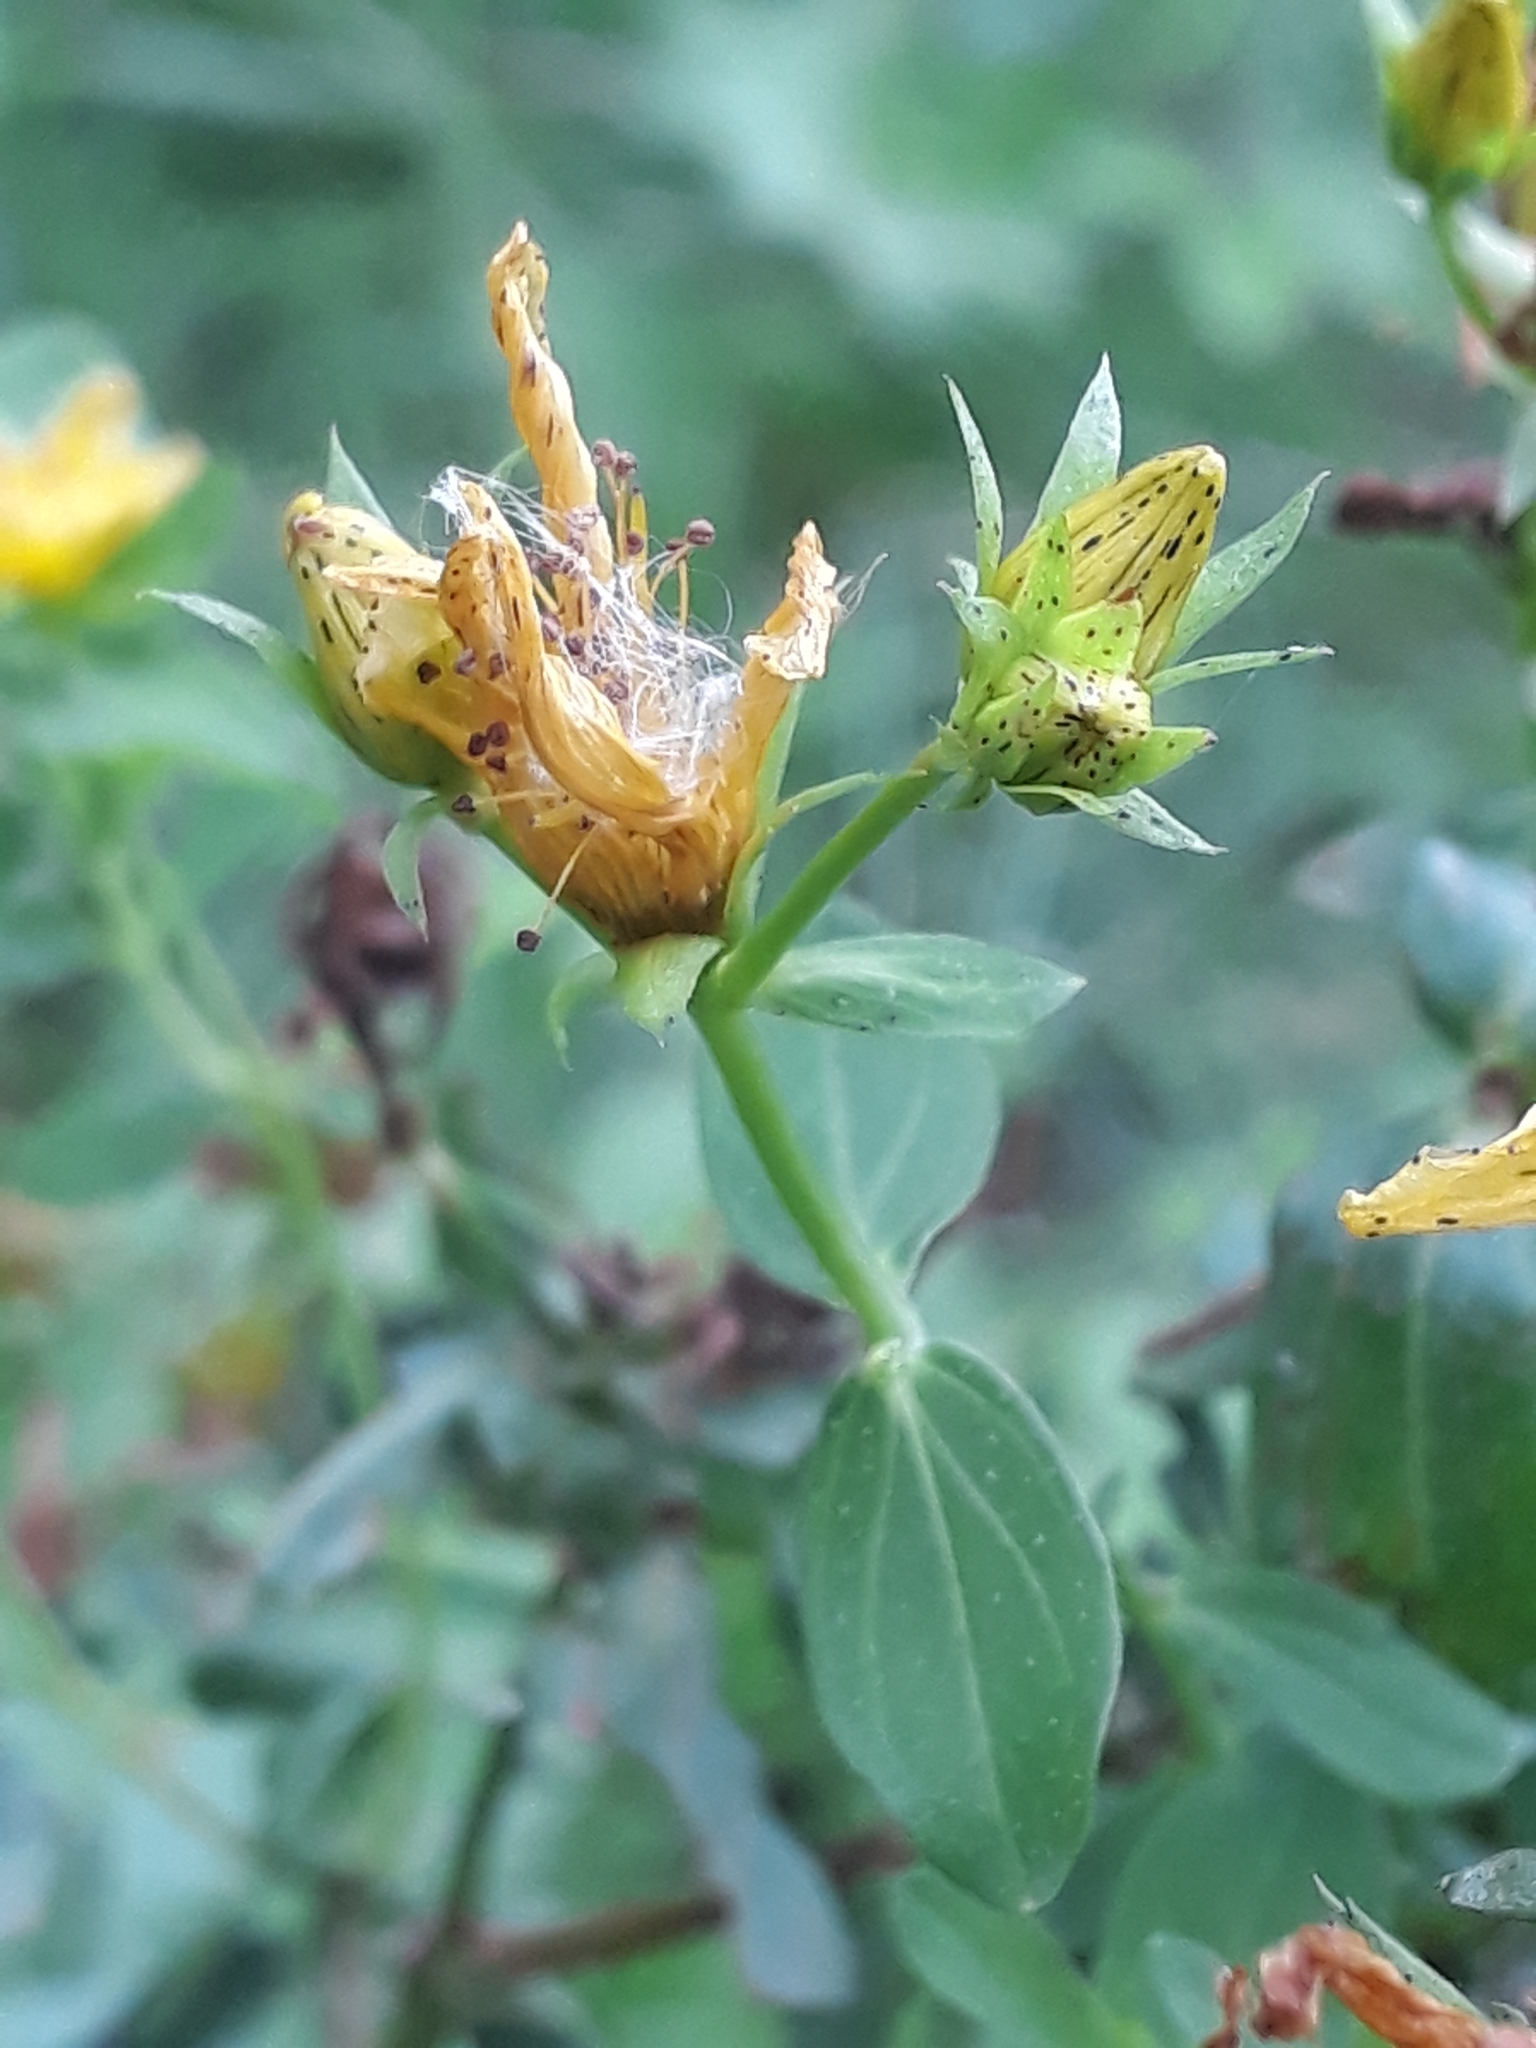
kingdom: Plantae
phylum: Tracheophyta
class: Magnoliopsida
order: Malpighiales
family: Hypericaceae
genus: Hypericum
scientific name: Hypericum perforatum
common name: Common st. johnswort
